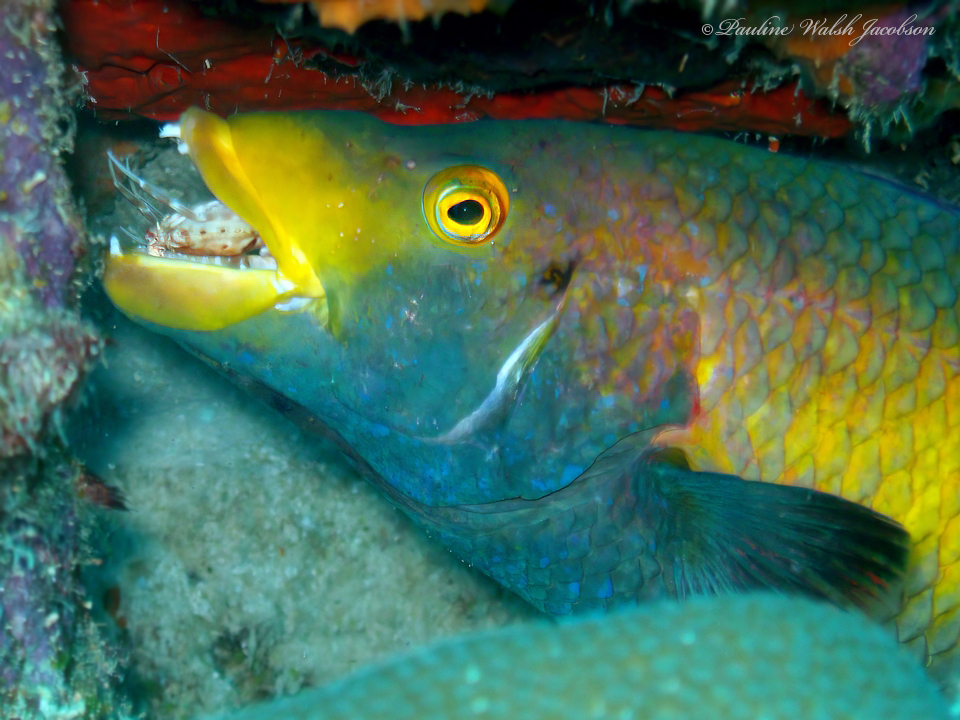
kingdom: Animalia
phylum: Chordata
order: Perciformes
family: Labridae
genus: Bodianus
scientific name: Bodianus rufus
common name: Spanish hogfish
